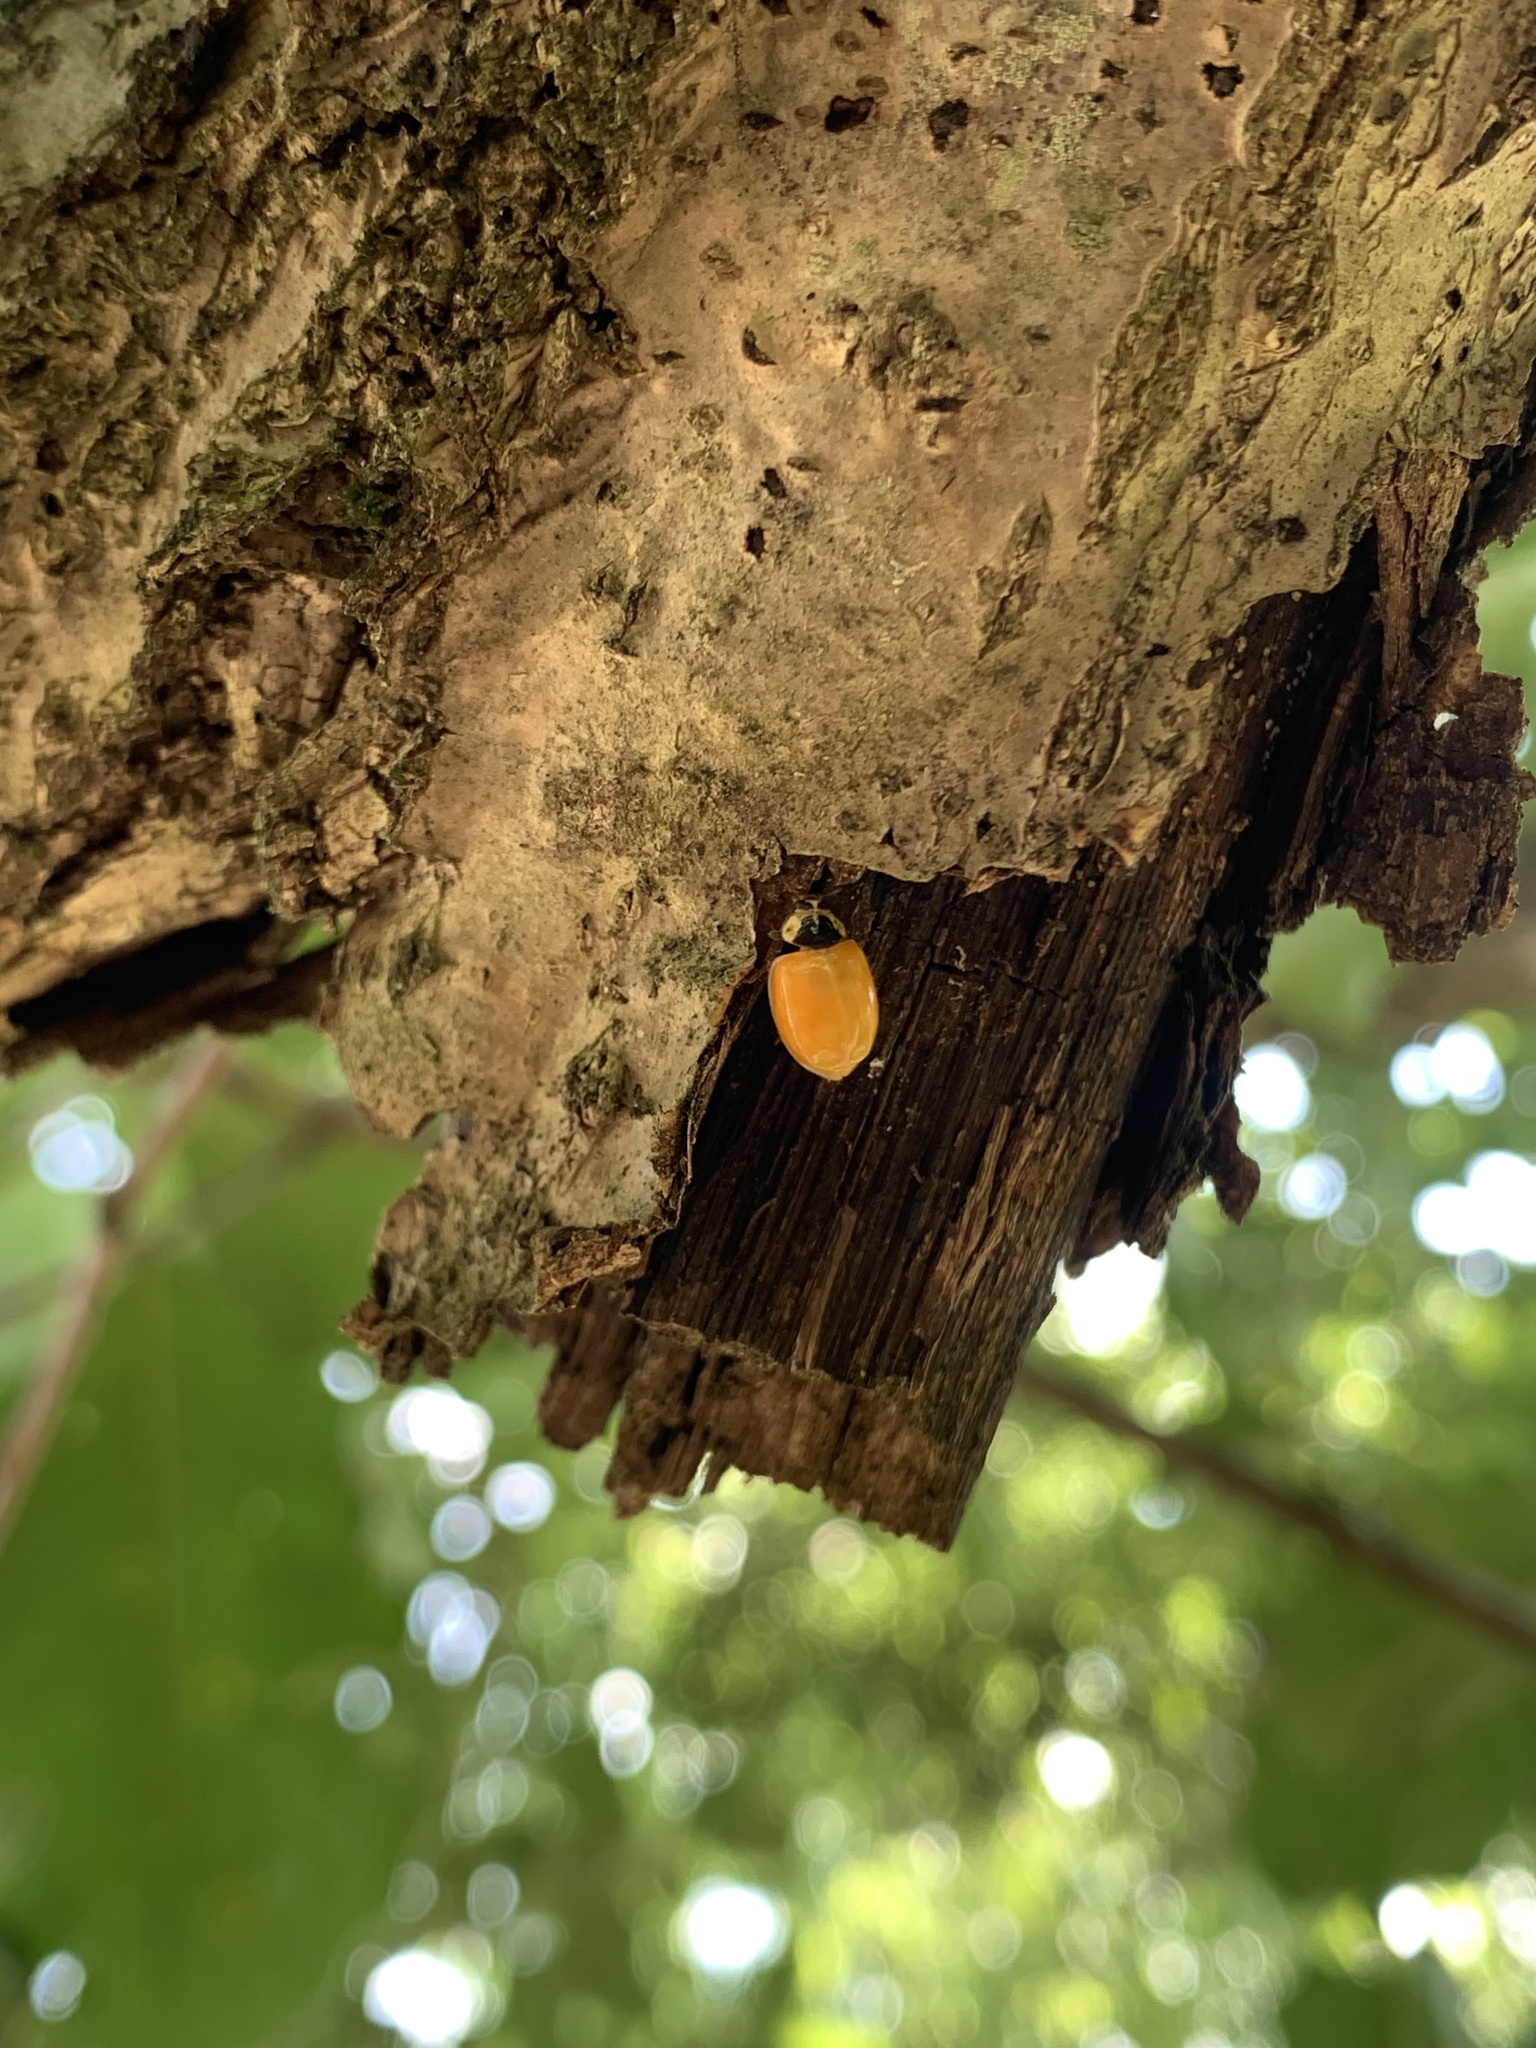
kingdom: Animalia
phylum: Arthropoda
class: Insecta
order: Coleoptera
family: Coccinellidae
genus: Harmonia
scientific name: Harmonia axyridis
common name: Harlequin ladybird
